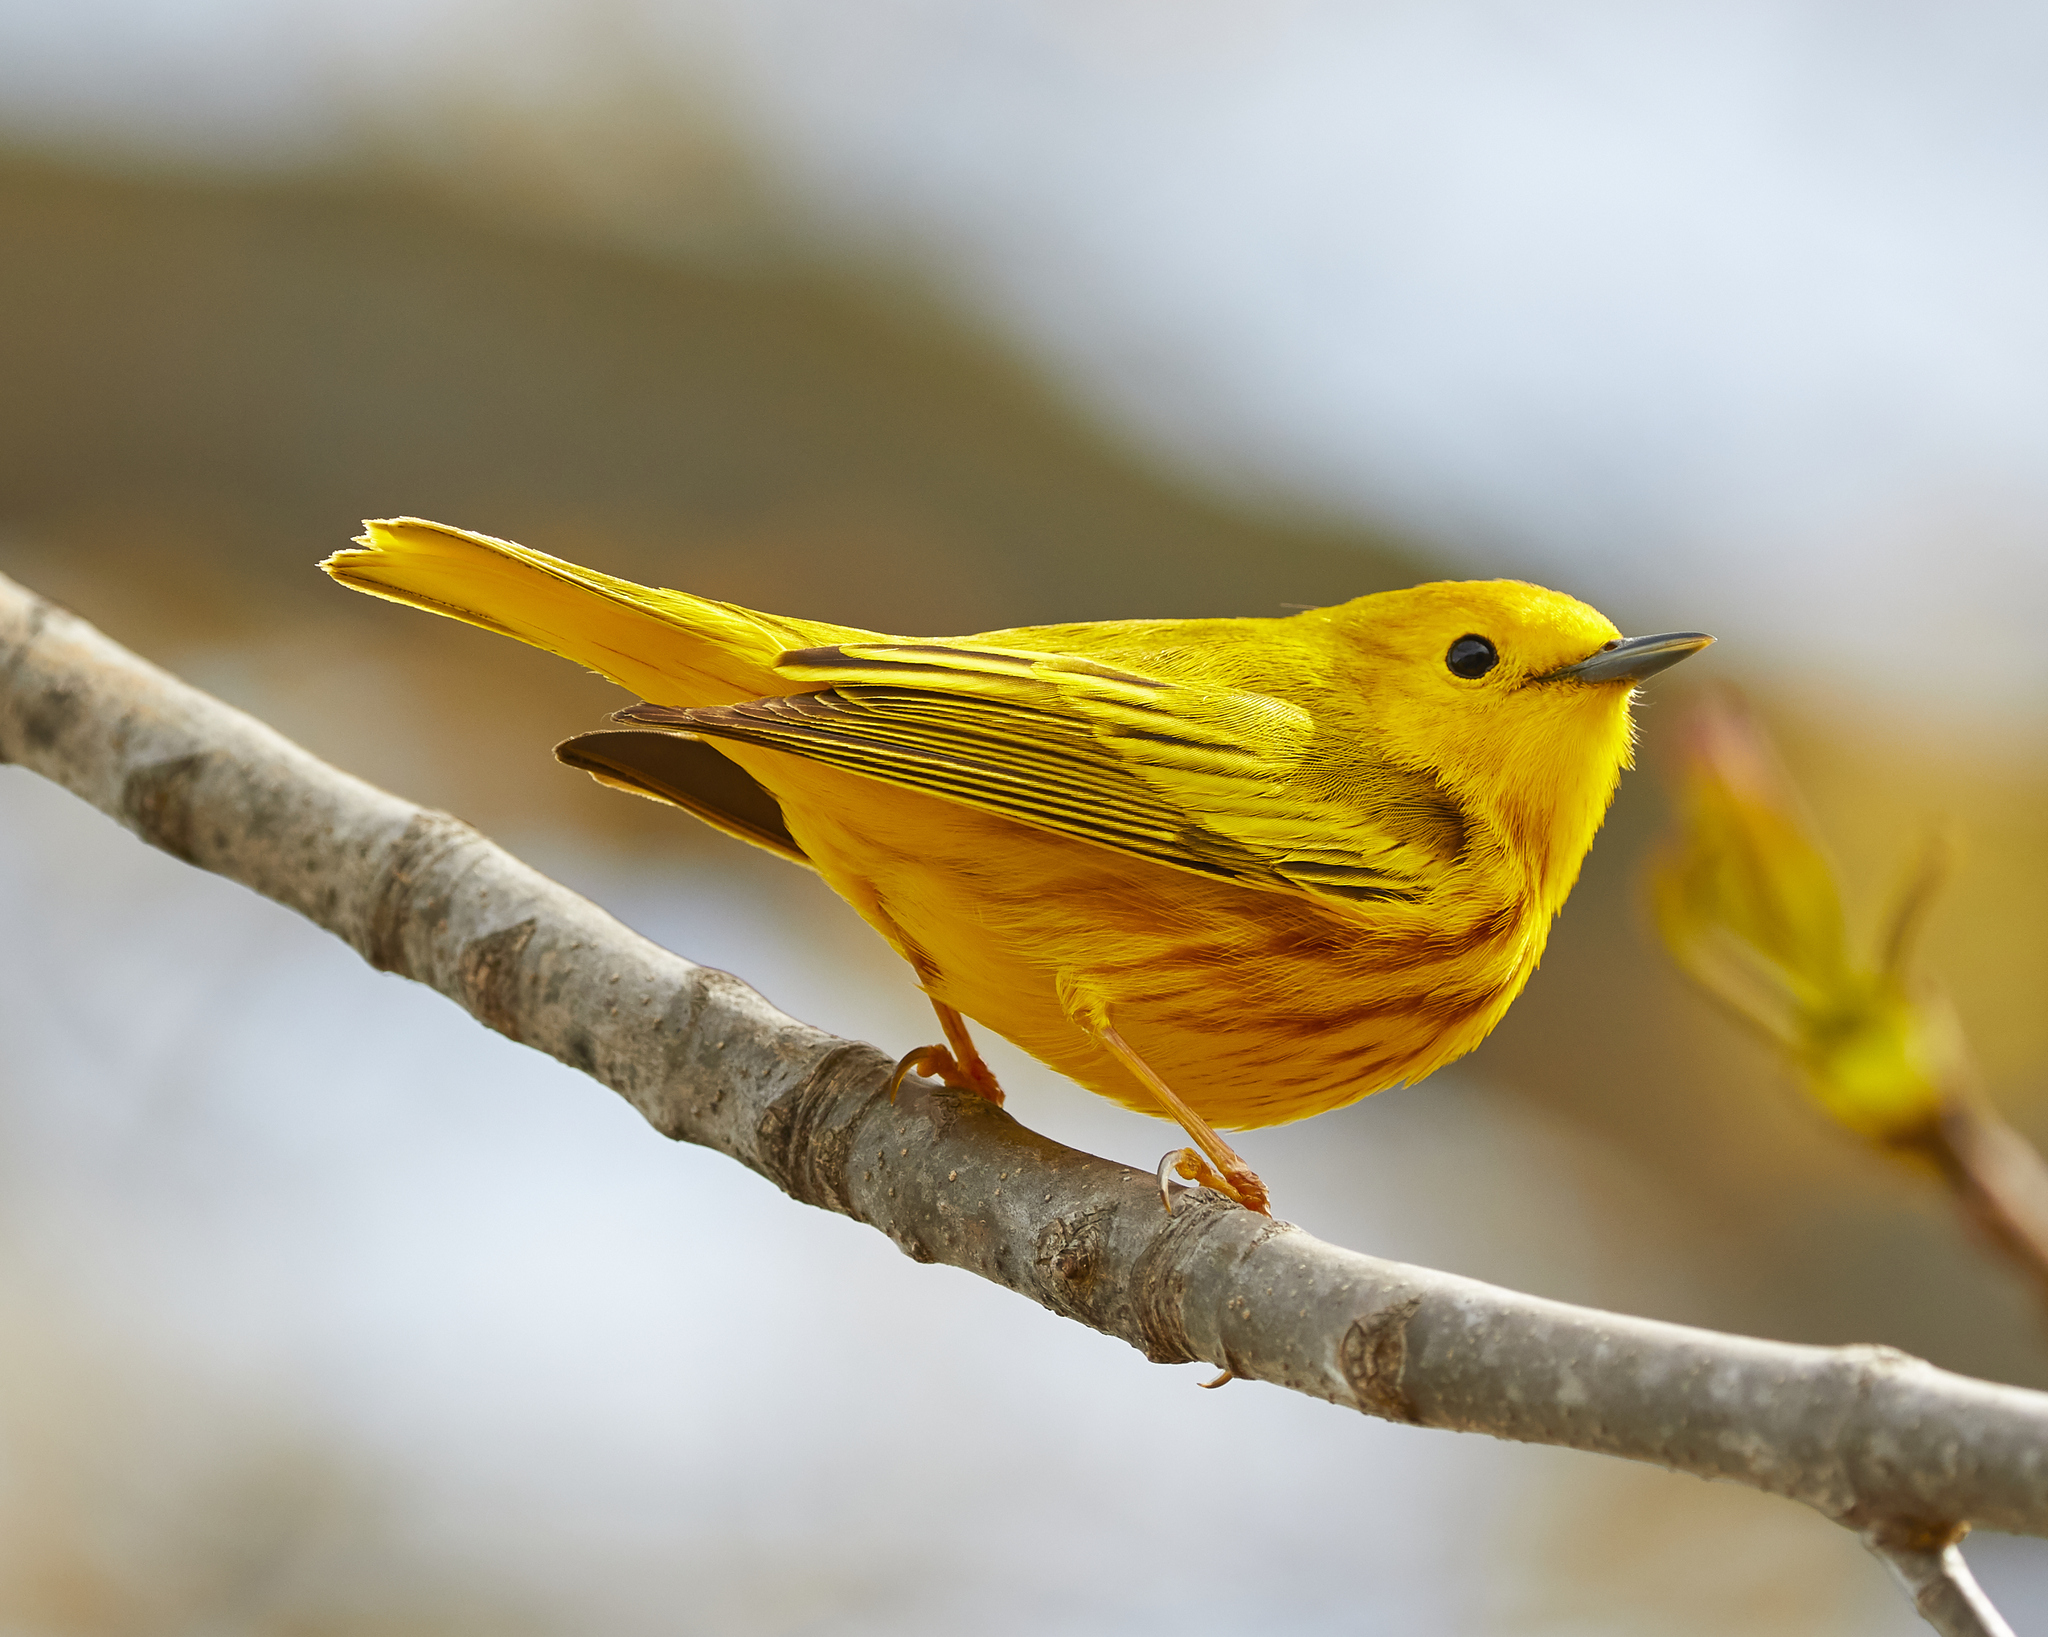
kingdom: Animalia
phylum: Chordata
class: Aves
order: Passeriformes
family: Parulidae
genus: Setophaga
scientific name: Setophaga petechia
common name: Yellow warbler
